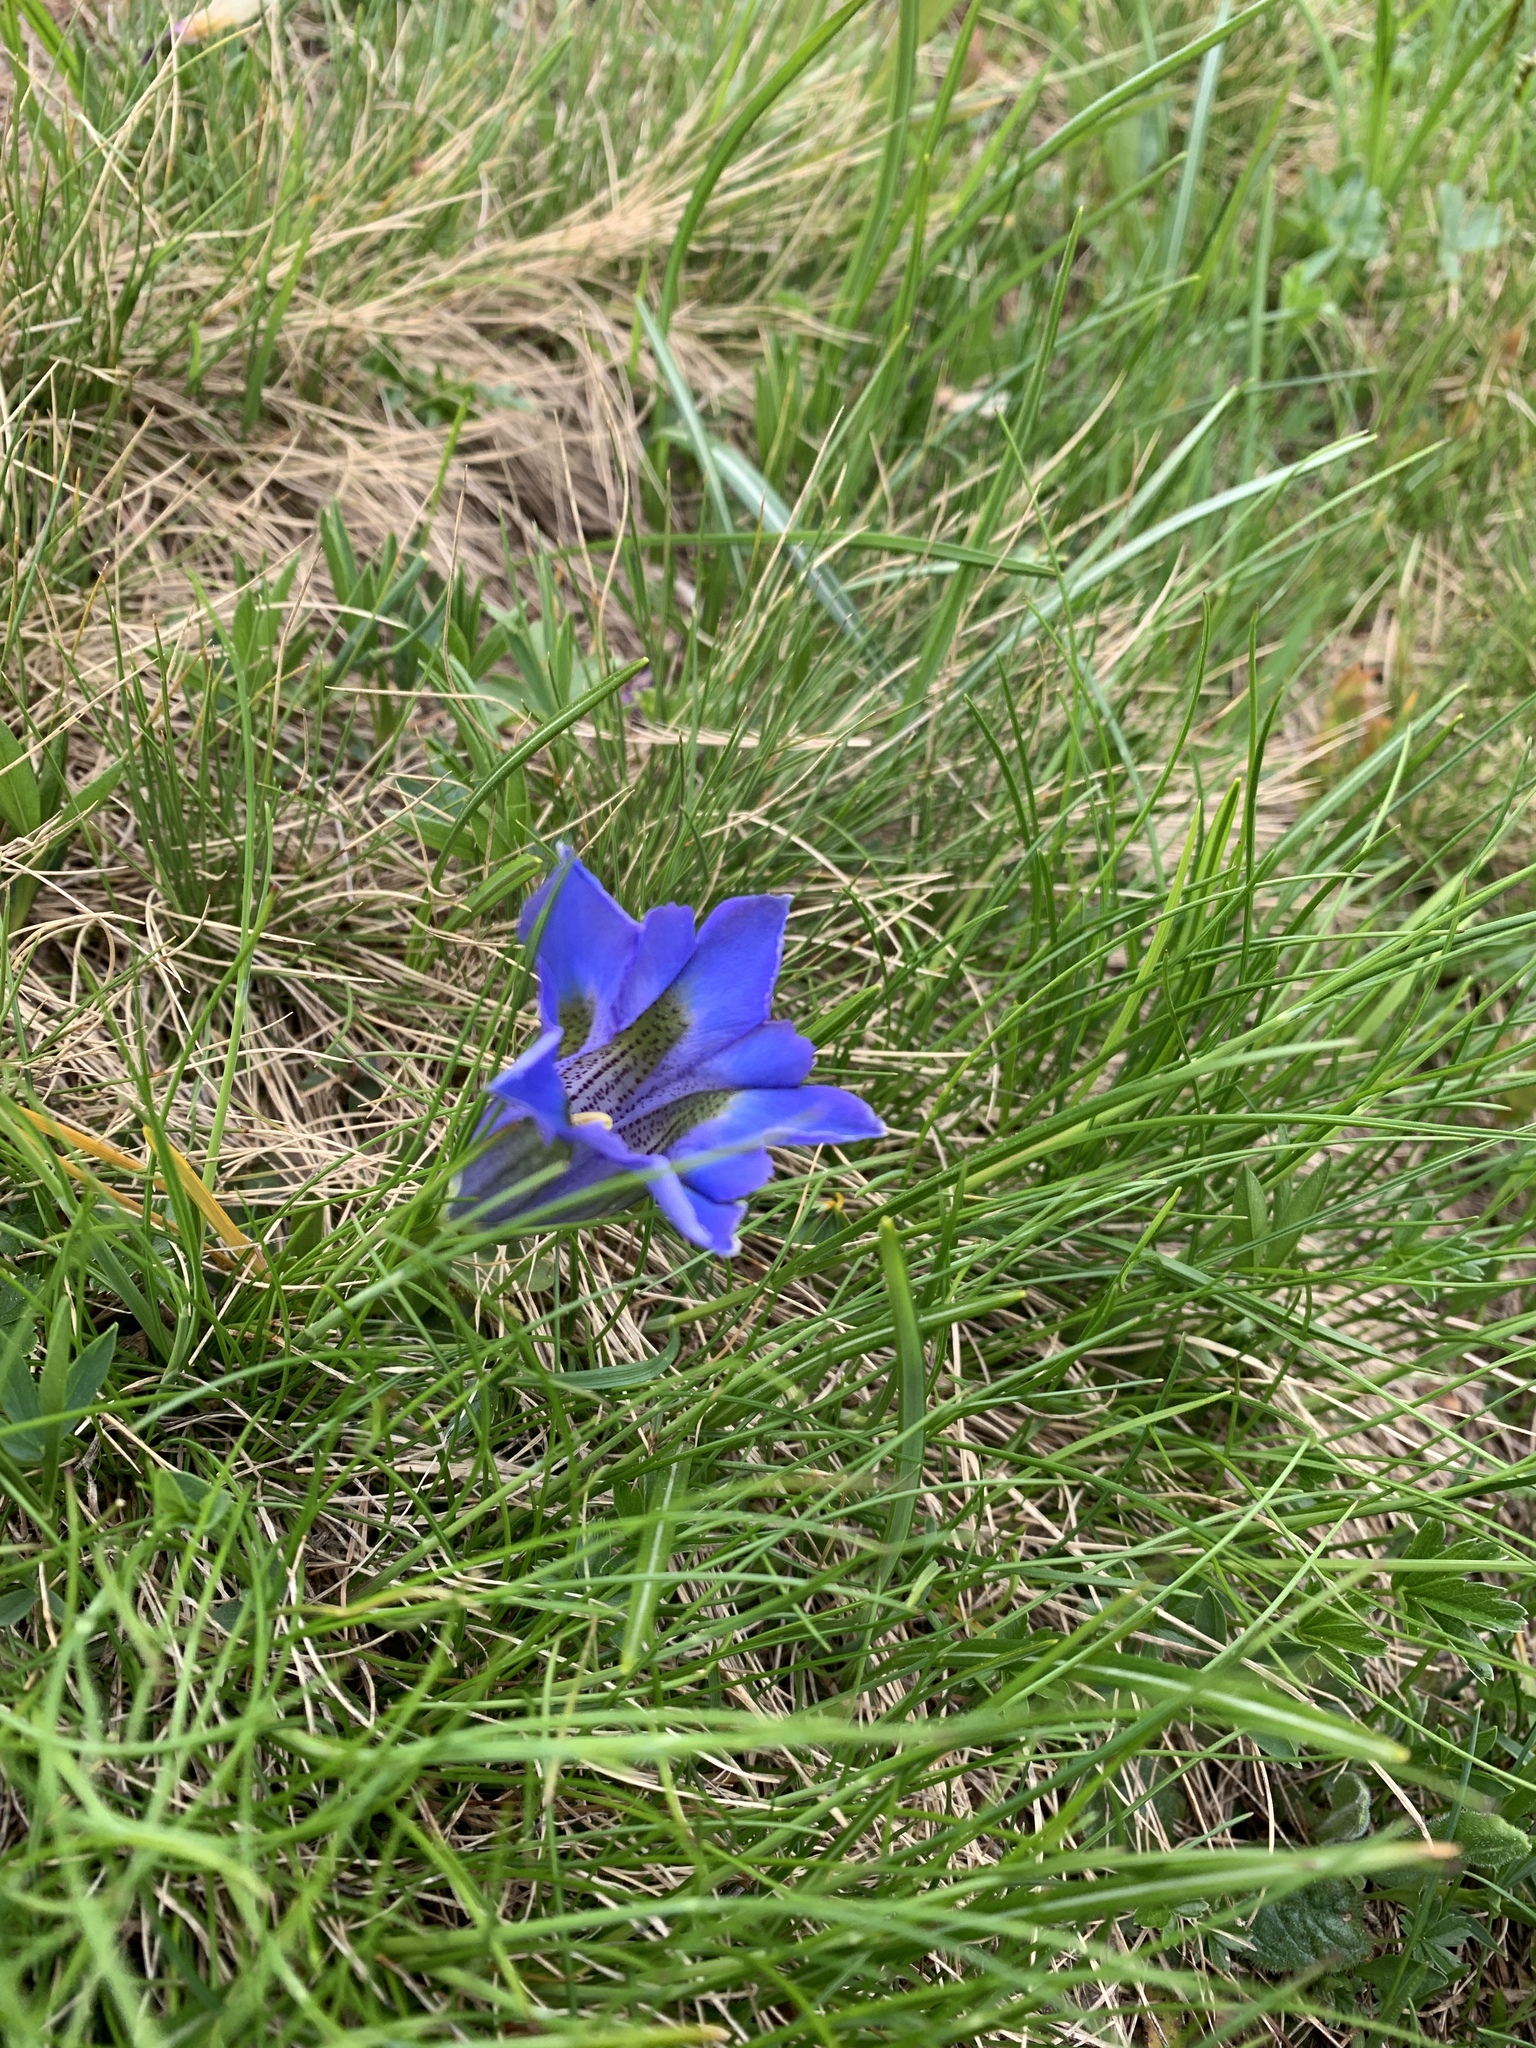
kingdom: Plantae
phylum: Tracheophyta
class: Magnoliopsida
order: Gentianales
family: Gentianaceae
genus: Gentiana
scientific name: Gentiana acaulis
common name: Trumpet gentian
